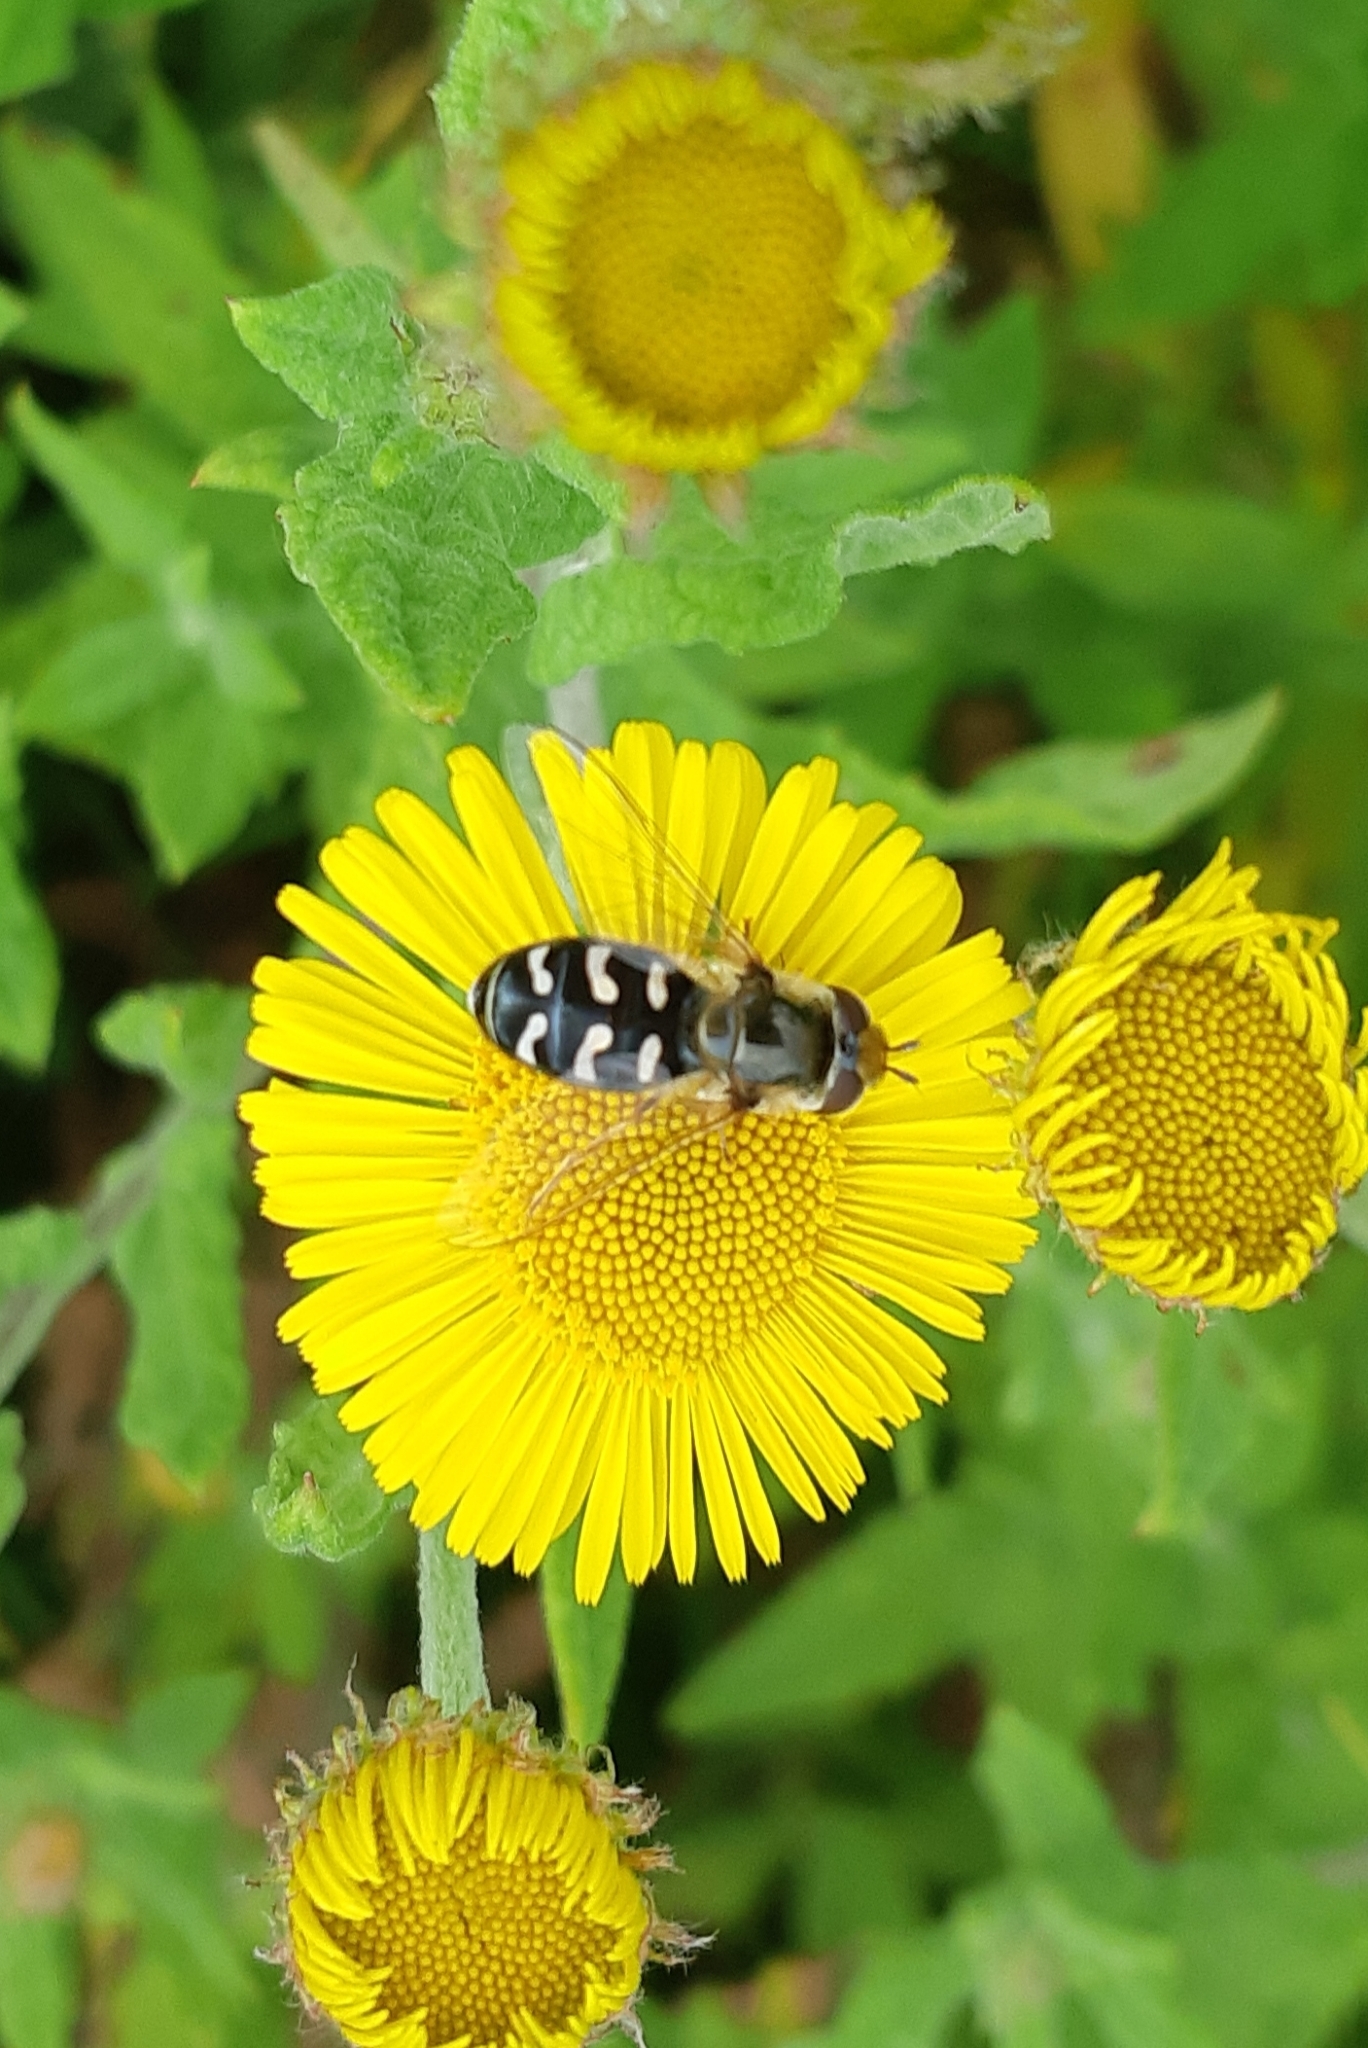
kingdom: Animalia
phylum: Arthropoda
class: Insecta
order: Diptera
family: Syrphidae
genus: Scaeva
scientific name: Scaeva pyrastri
